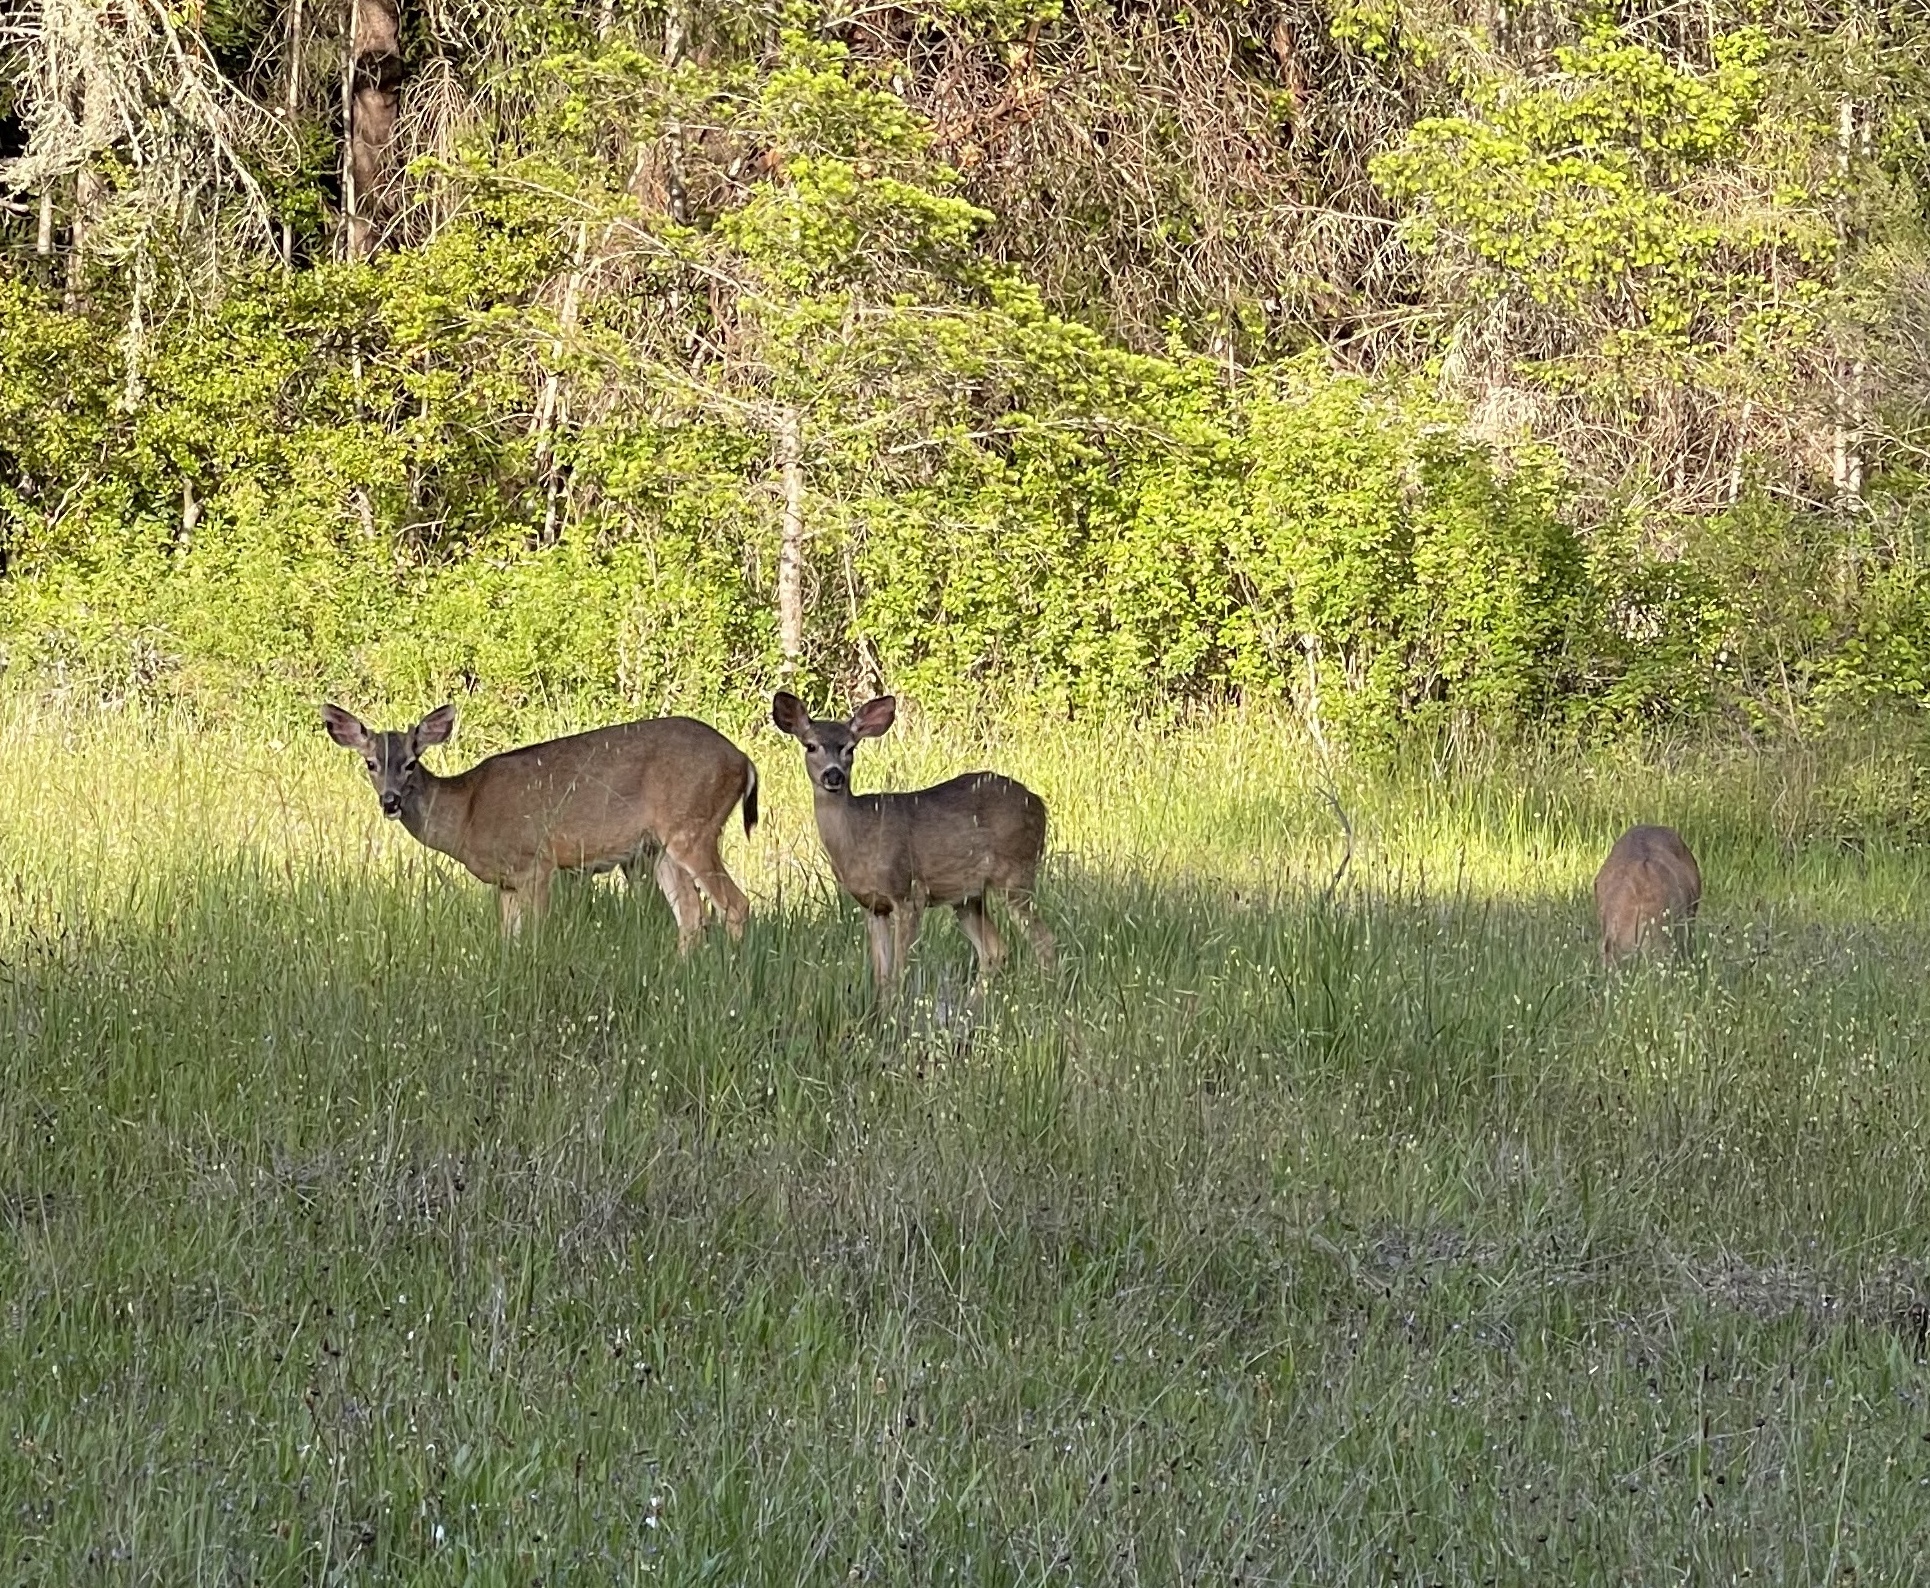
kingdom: Animalia
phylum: Chordata
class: Mammalia
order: Artiodactyla
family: Cervidae
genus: Odocoileus
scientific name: Odocoileus hemionus
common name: Mule deer
